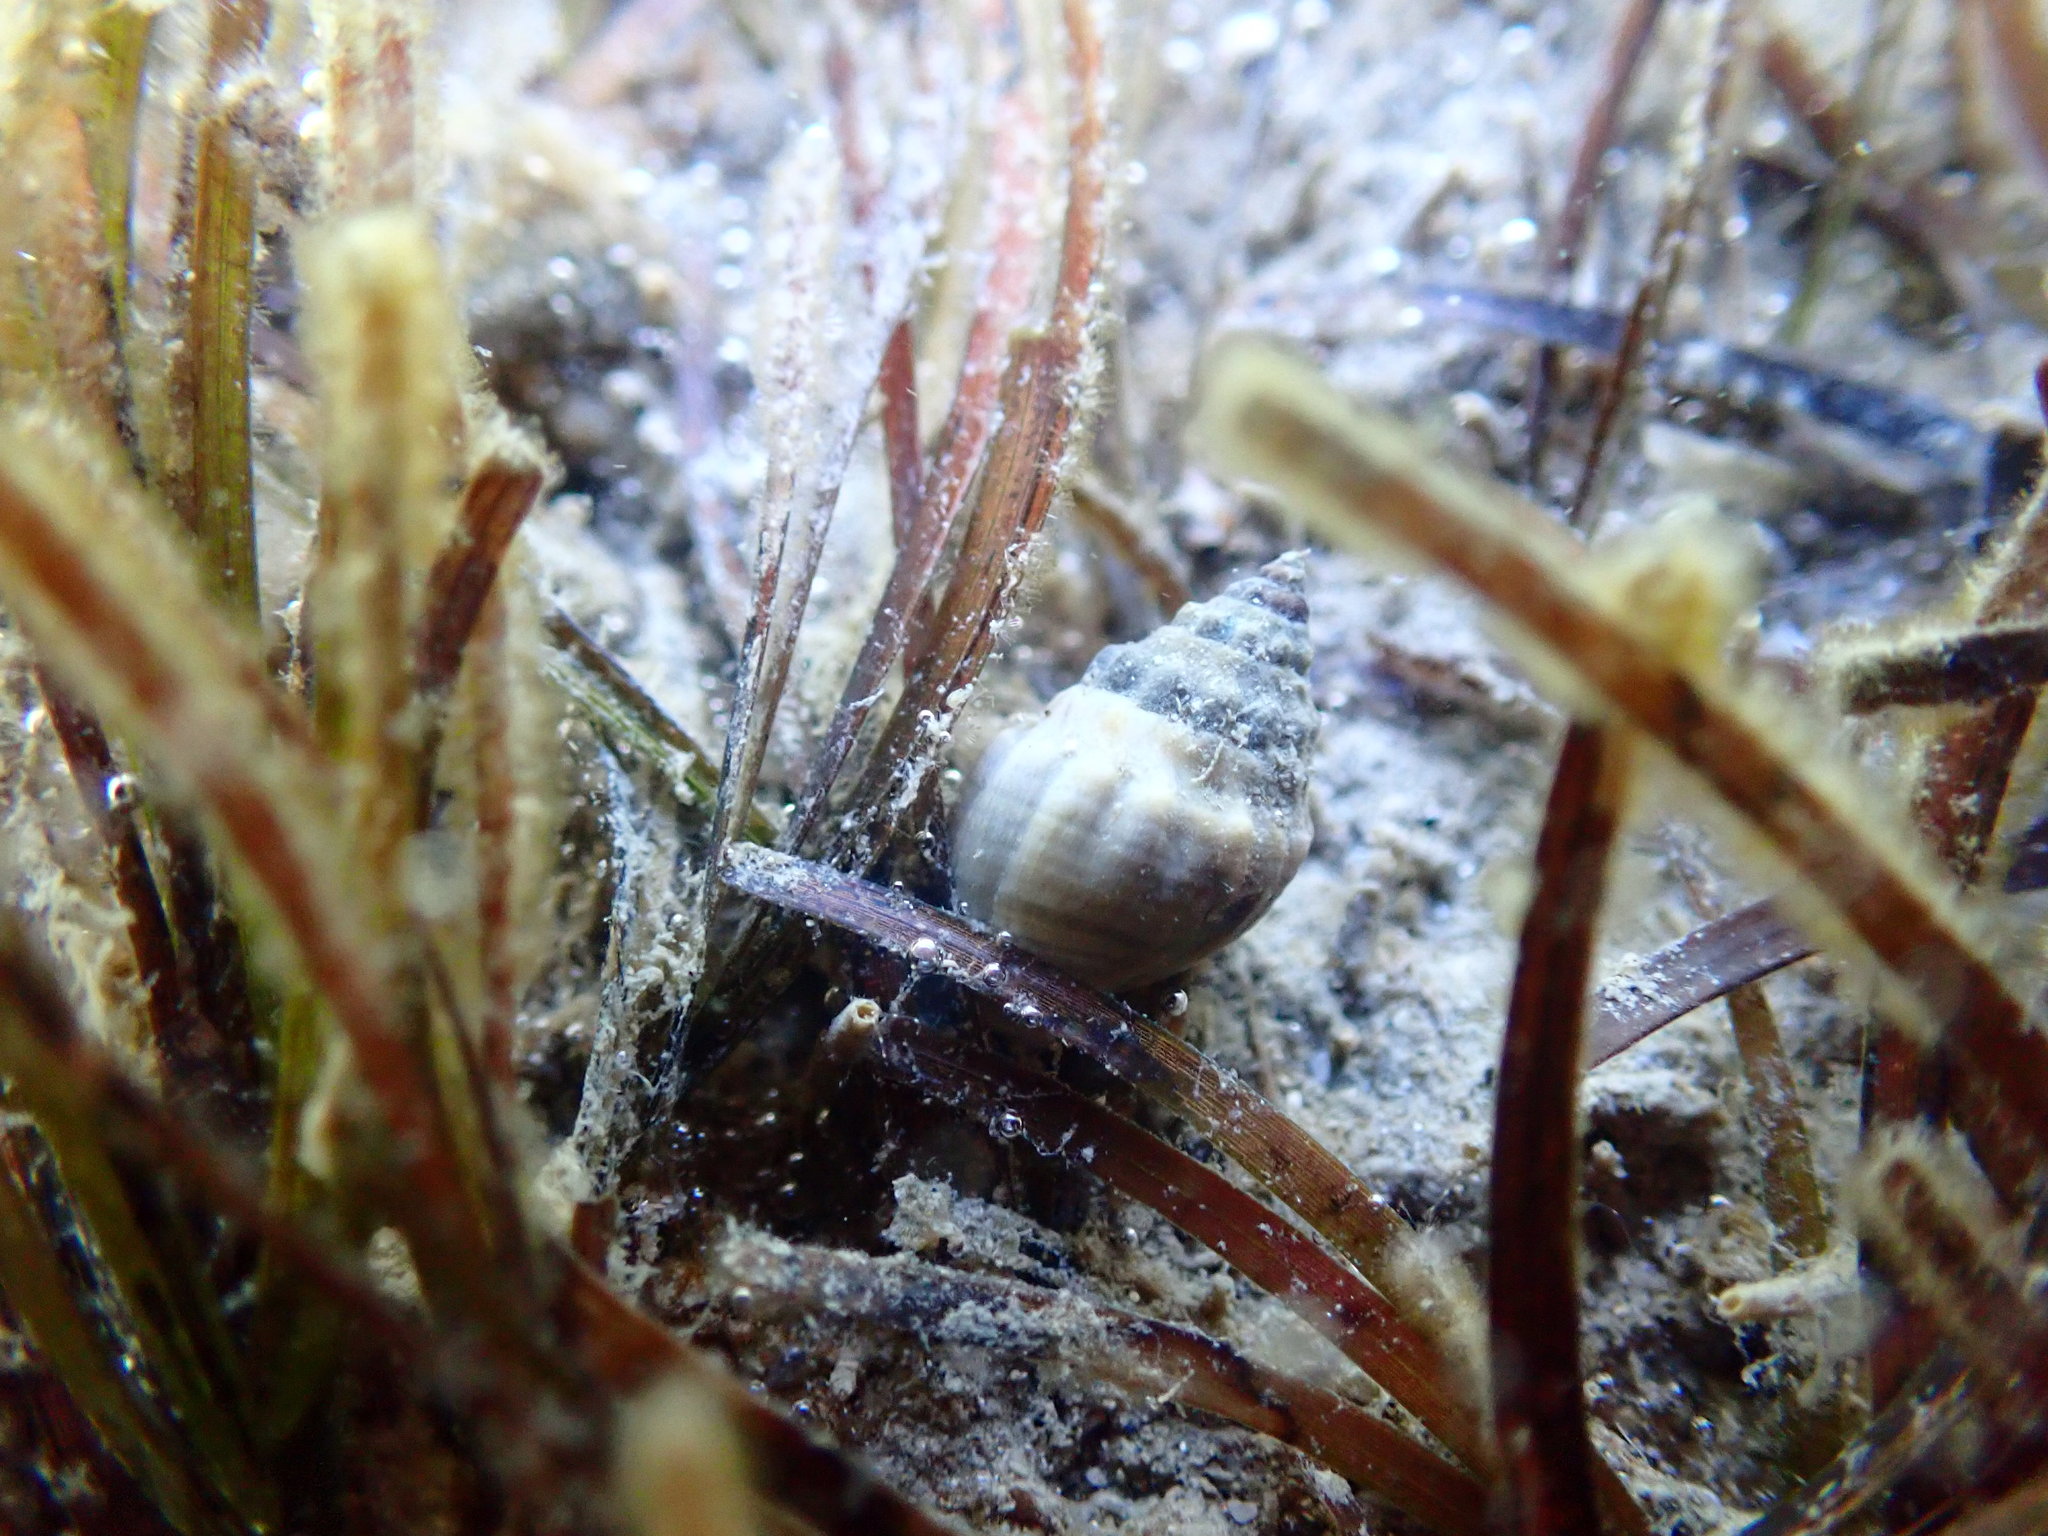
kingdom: Animalia
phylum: Mollusca
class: Gastropoda
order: Neogastropoda
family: Cominellidae
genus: Cominella
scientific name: Cominella glandiformis
